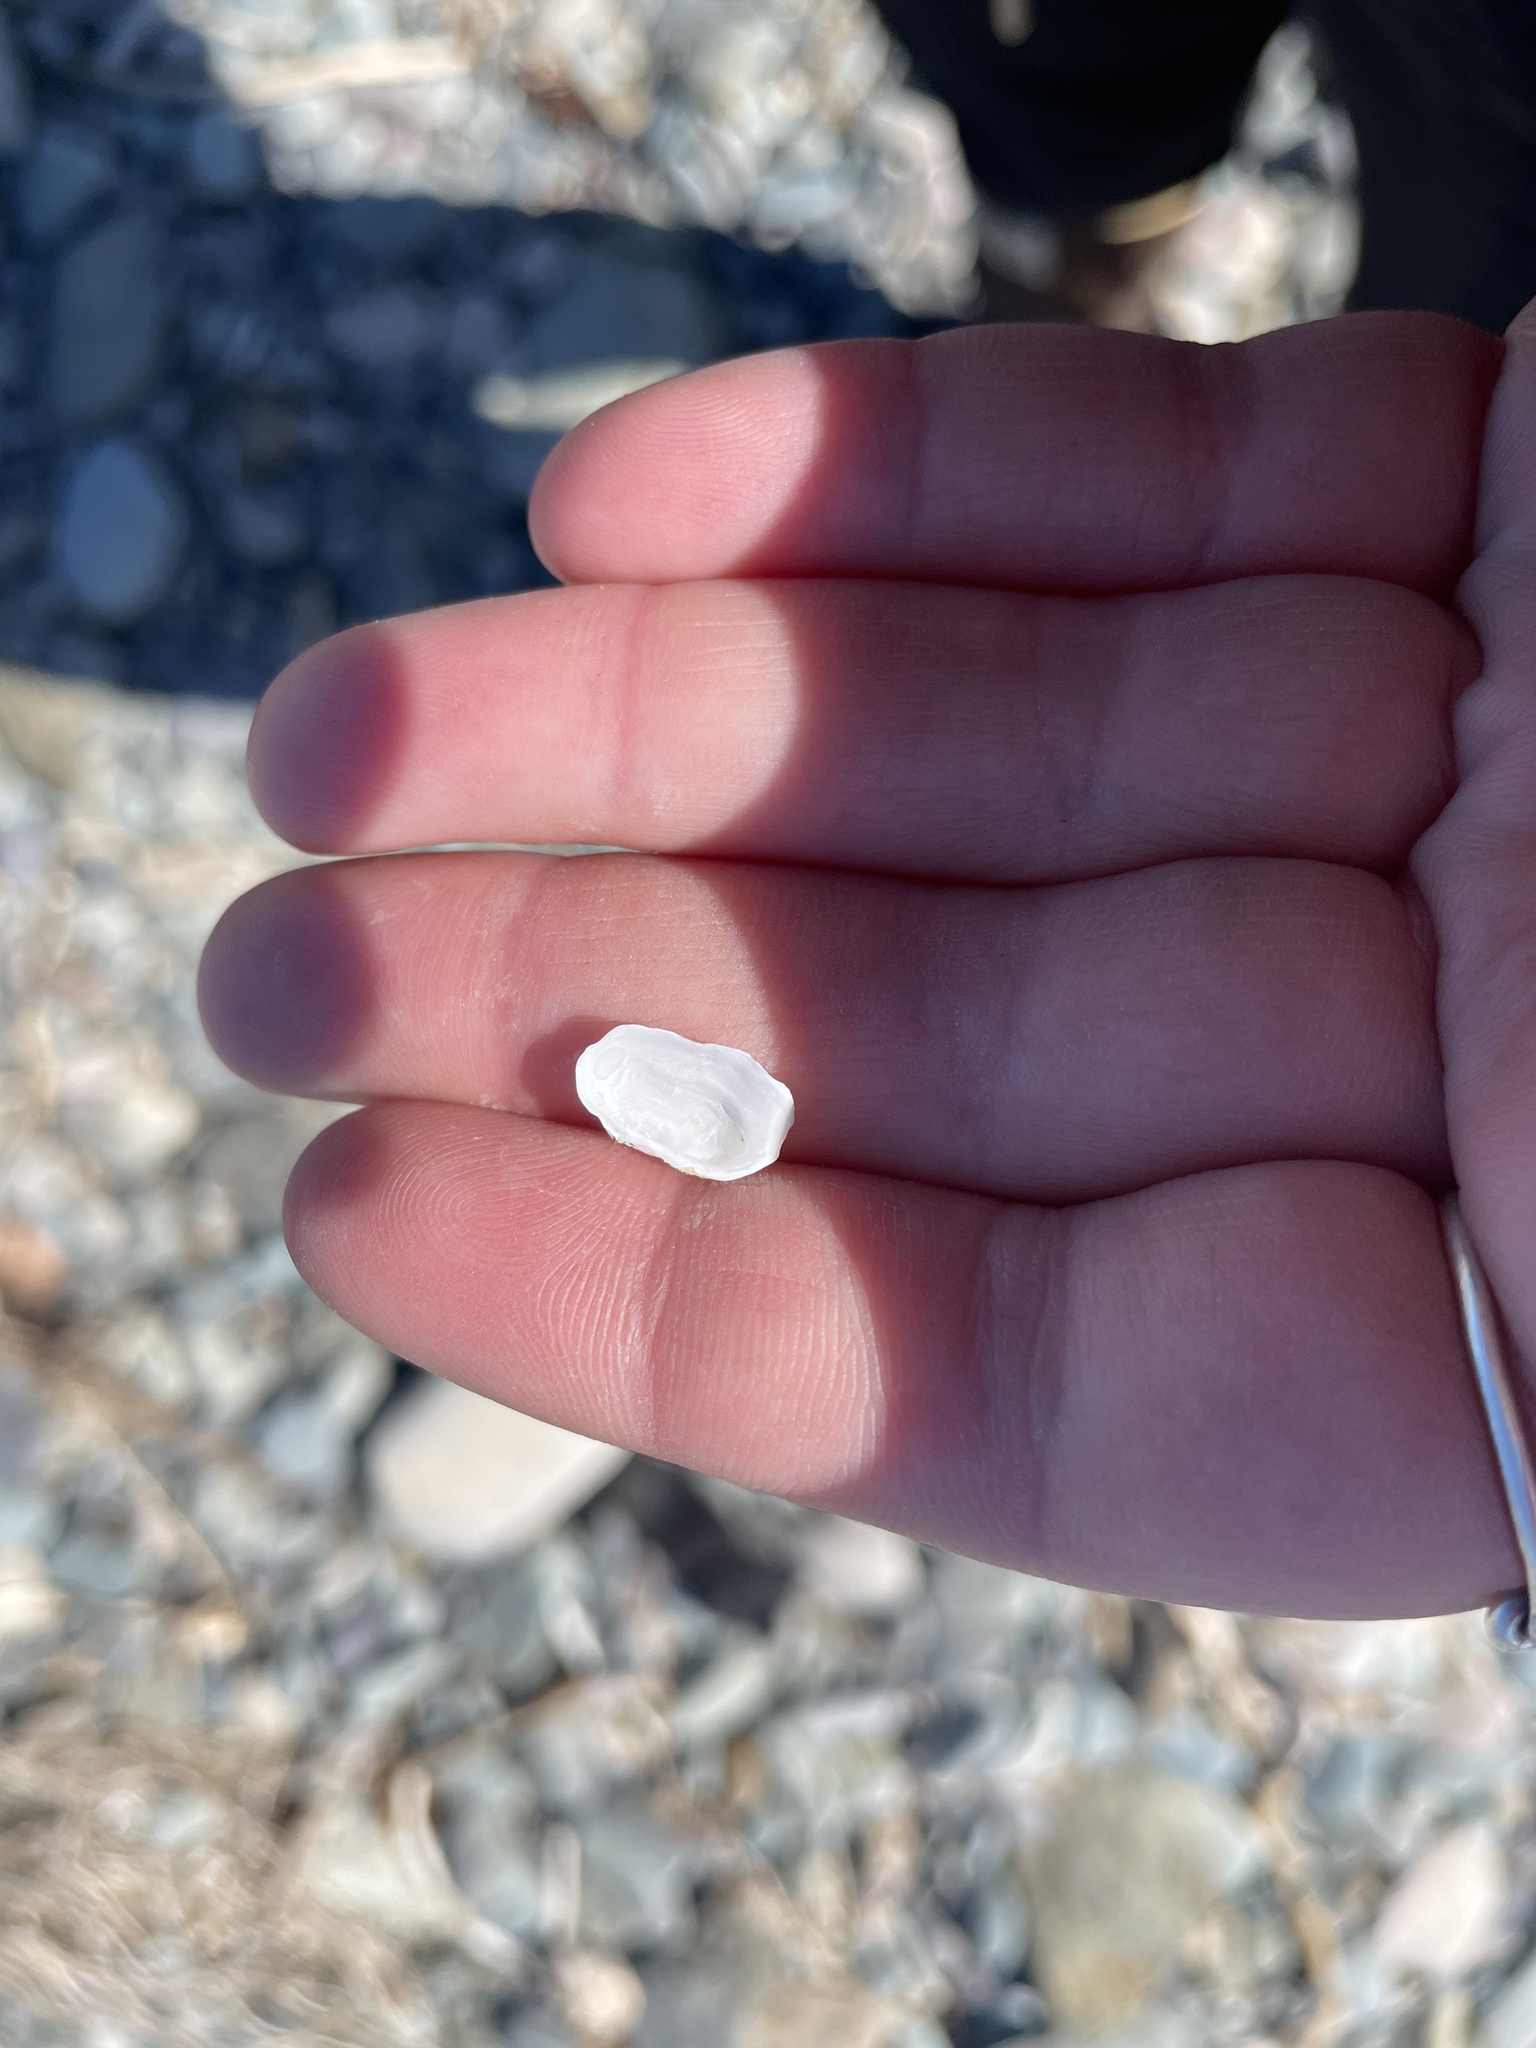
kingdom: Animalia
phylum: Mollusca
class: Bivalvia
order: Adapedonta
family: Hiatellidae
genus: Hiatella
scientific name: Hiatella arctica
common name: Arctic hiatella
